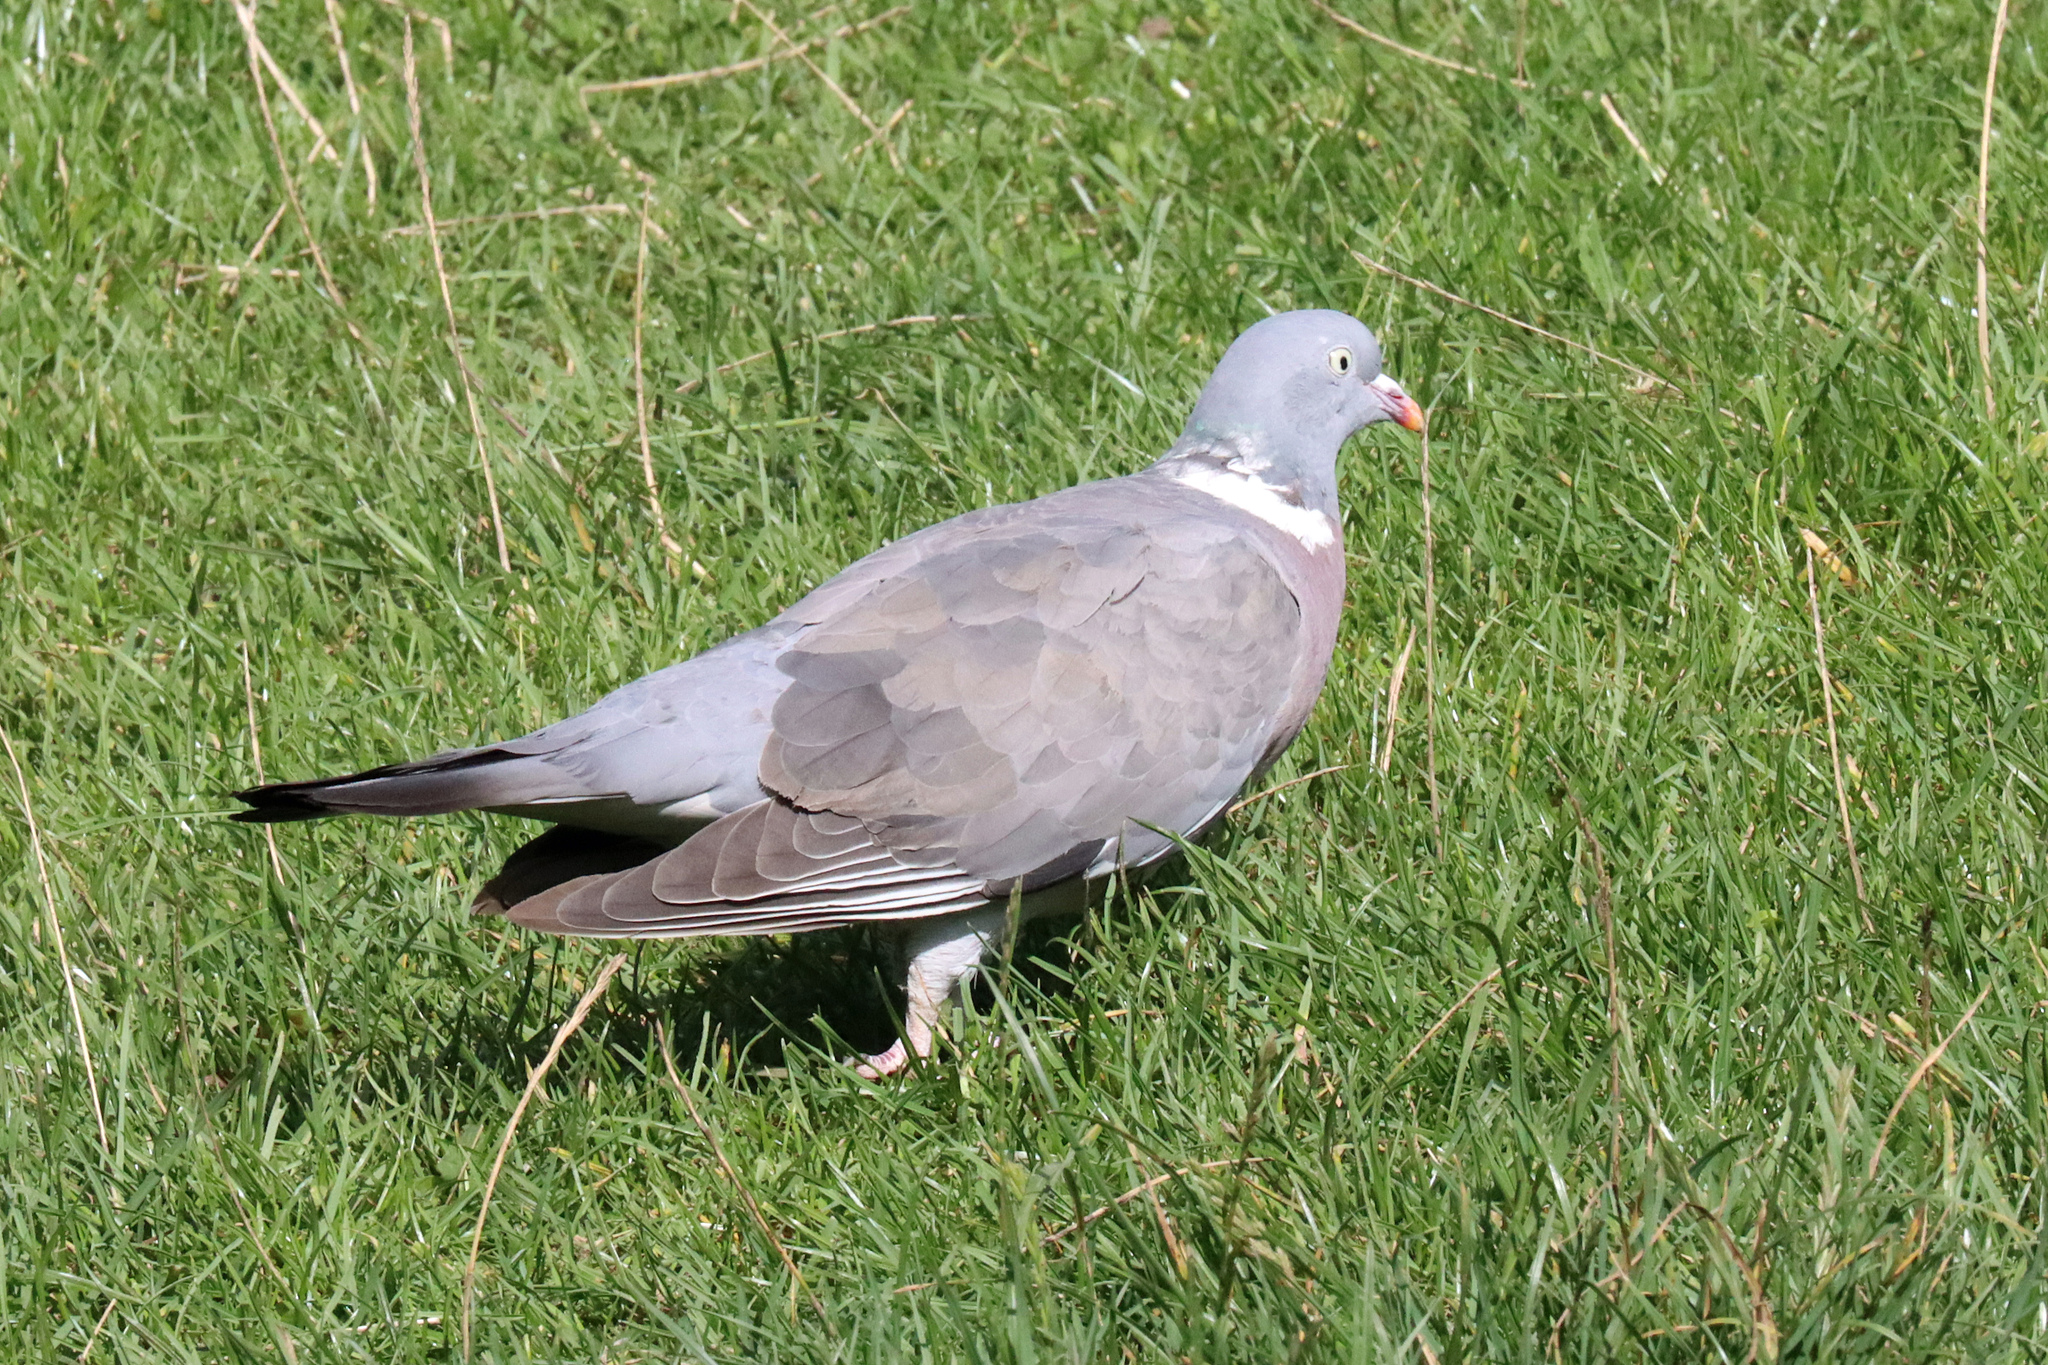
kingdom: Animalia
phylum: Chordata
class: Aves
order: Columbiformes
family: Columbidae
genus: Columba
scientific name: Columba palumbus
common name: Common wood pigeon
